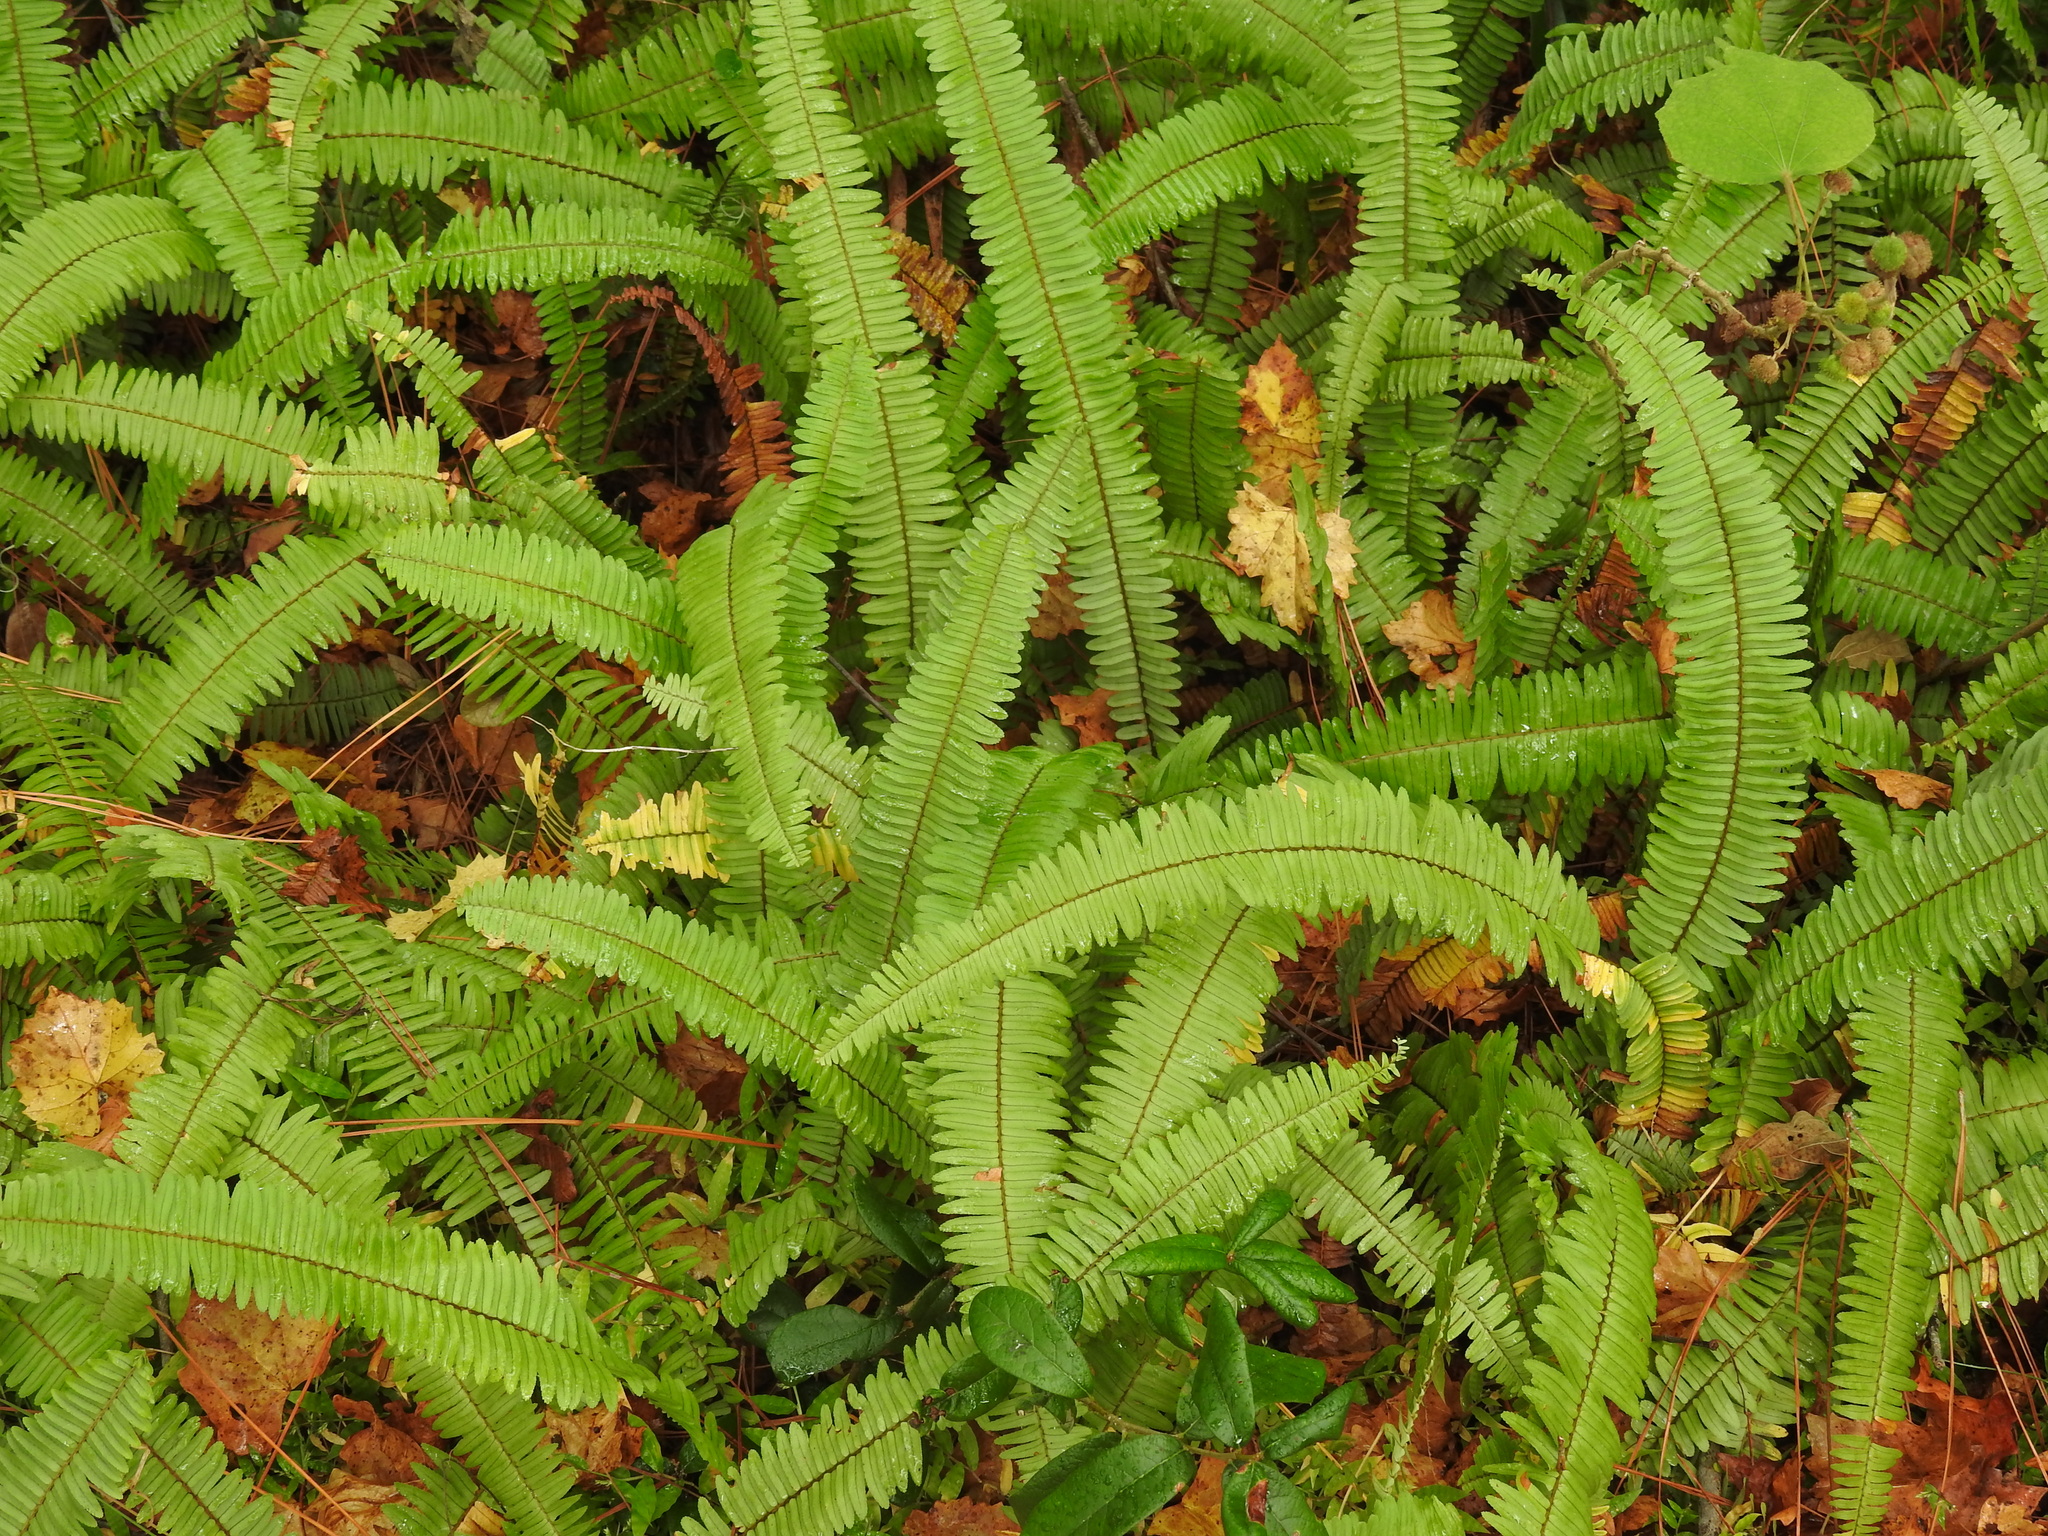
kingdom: Plantae
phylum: Tracheophyta
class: Polypodiopsida
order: Polypodiales
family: Nephrolepidaceae
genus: Nephrolepis
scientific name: Nephrolepis cordifolia
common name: Narrow swordfern
